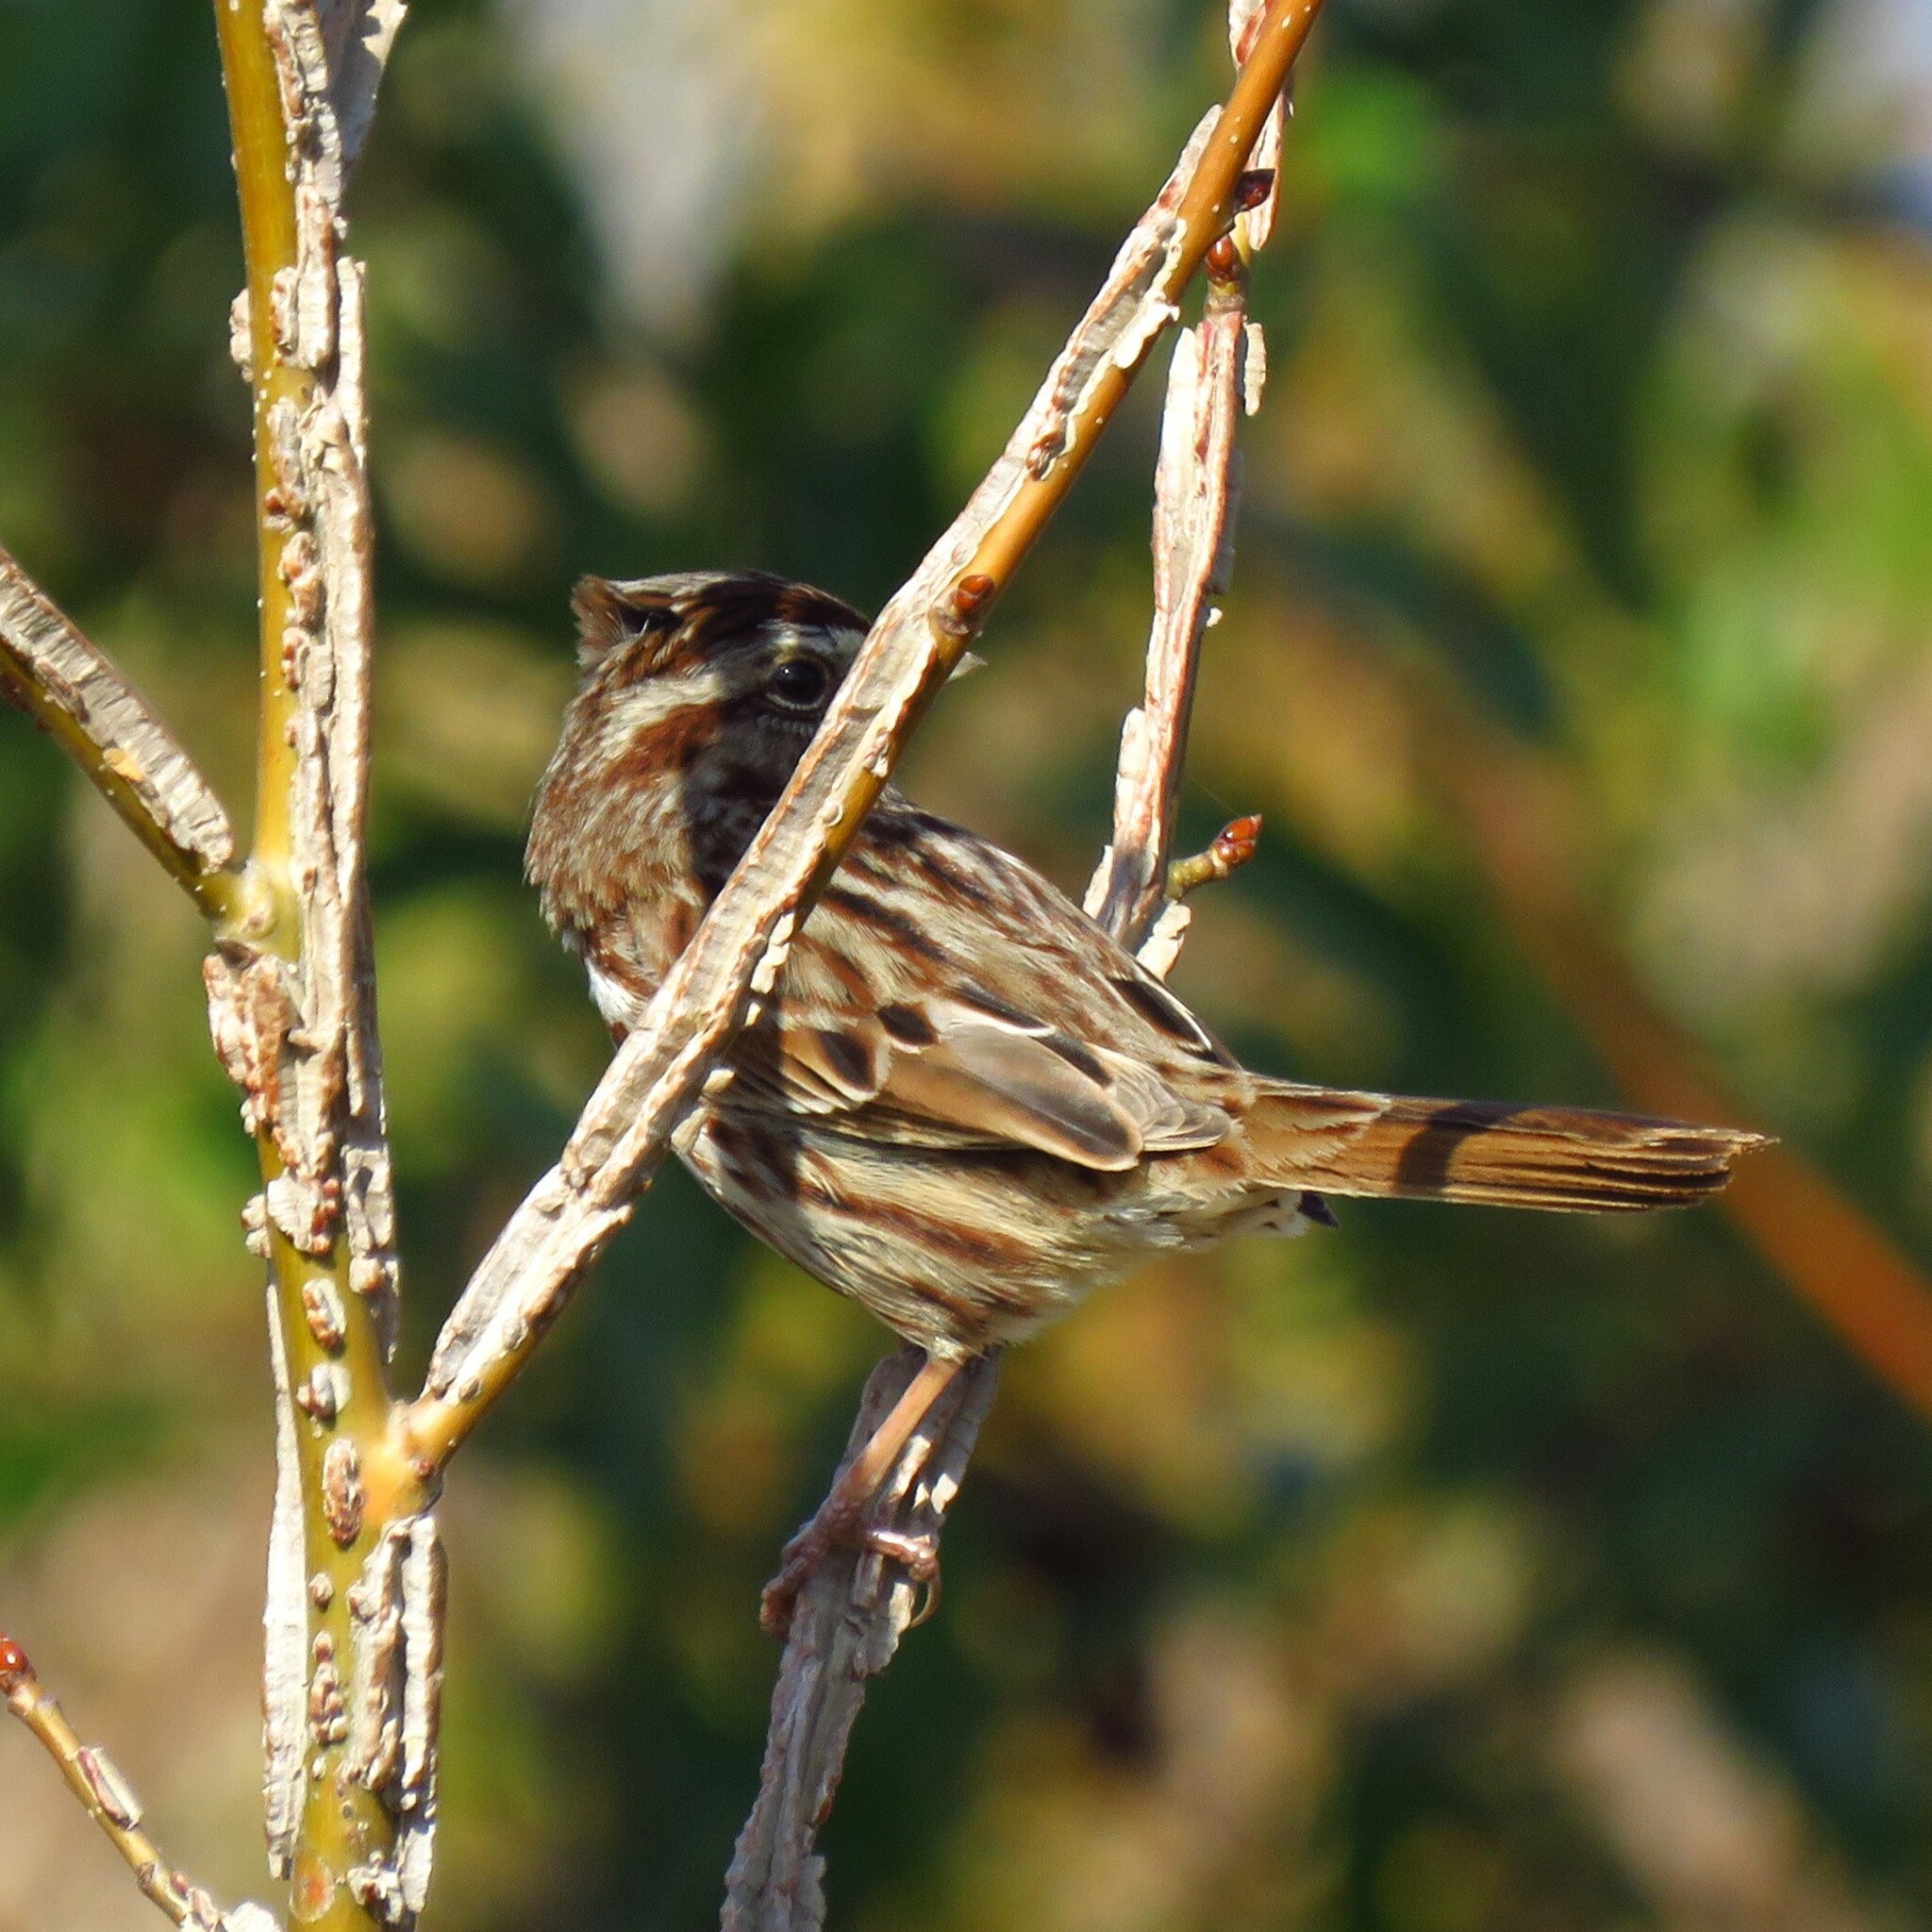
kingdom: Animalia
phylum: Chordata
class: Aves
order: Passeriformes
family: Passerellidae
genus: Melospiza
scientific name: Melospiza melodia
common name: Song sparrow
